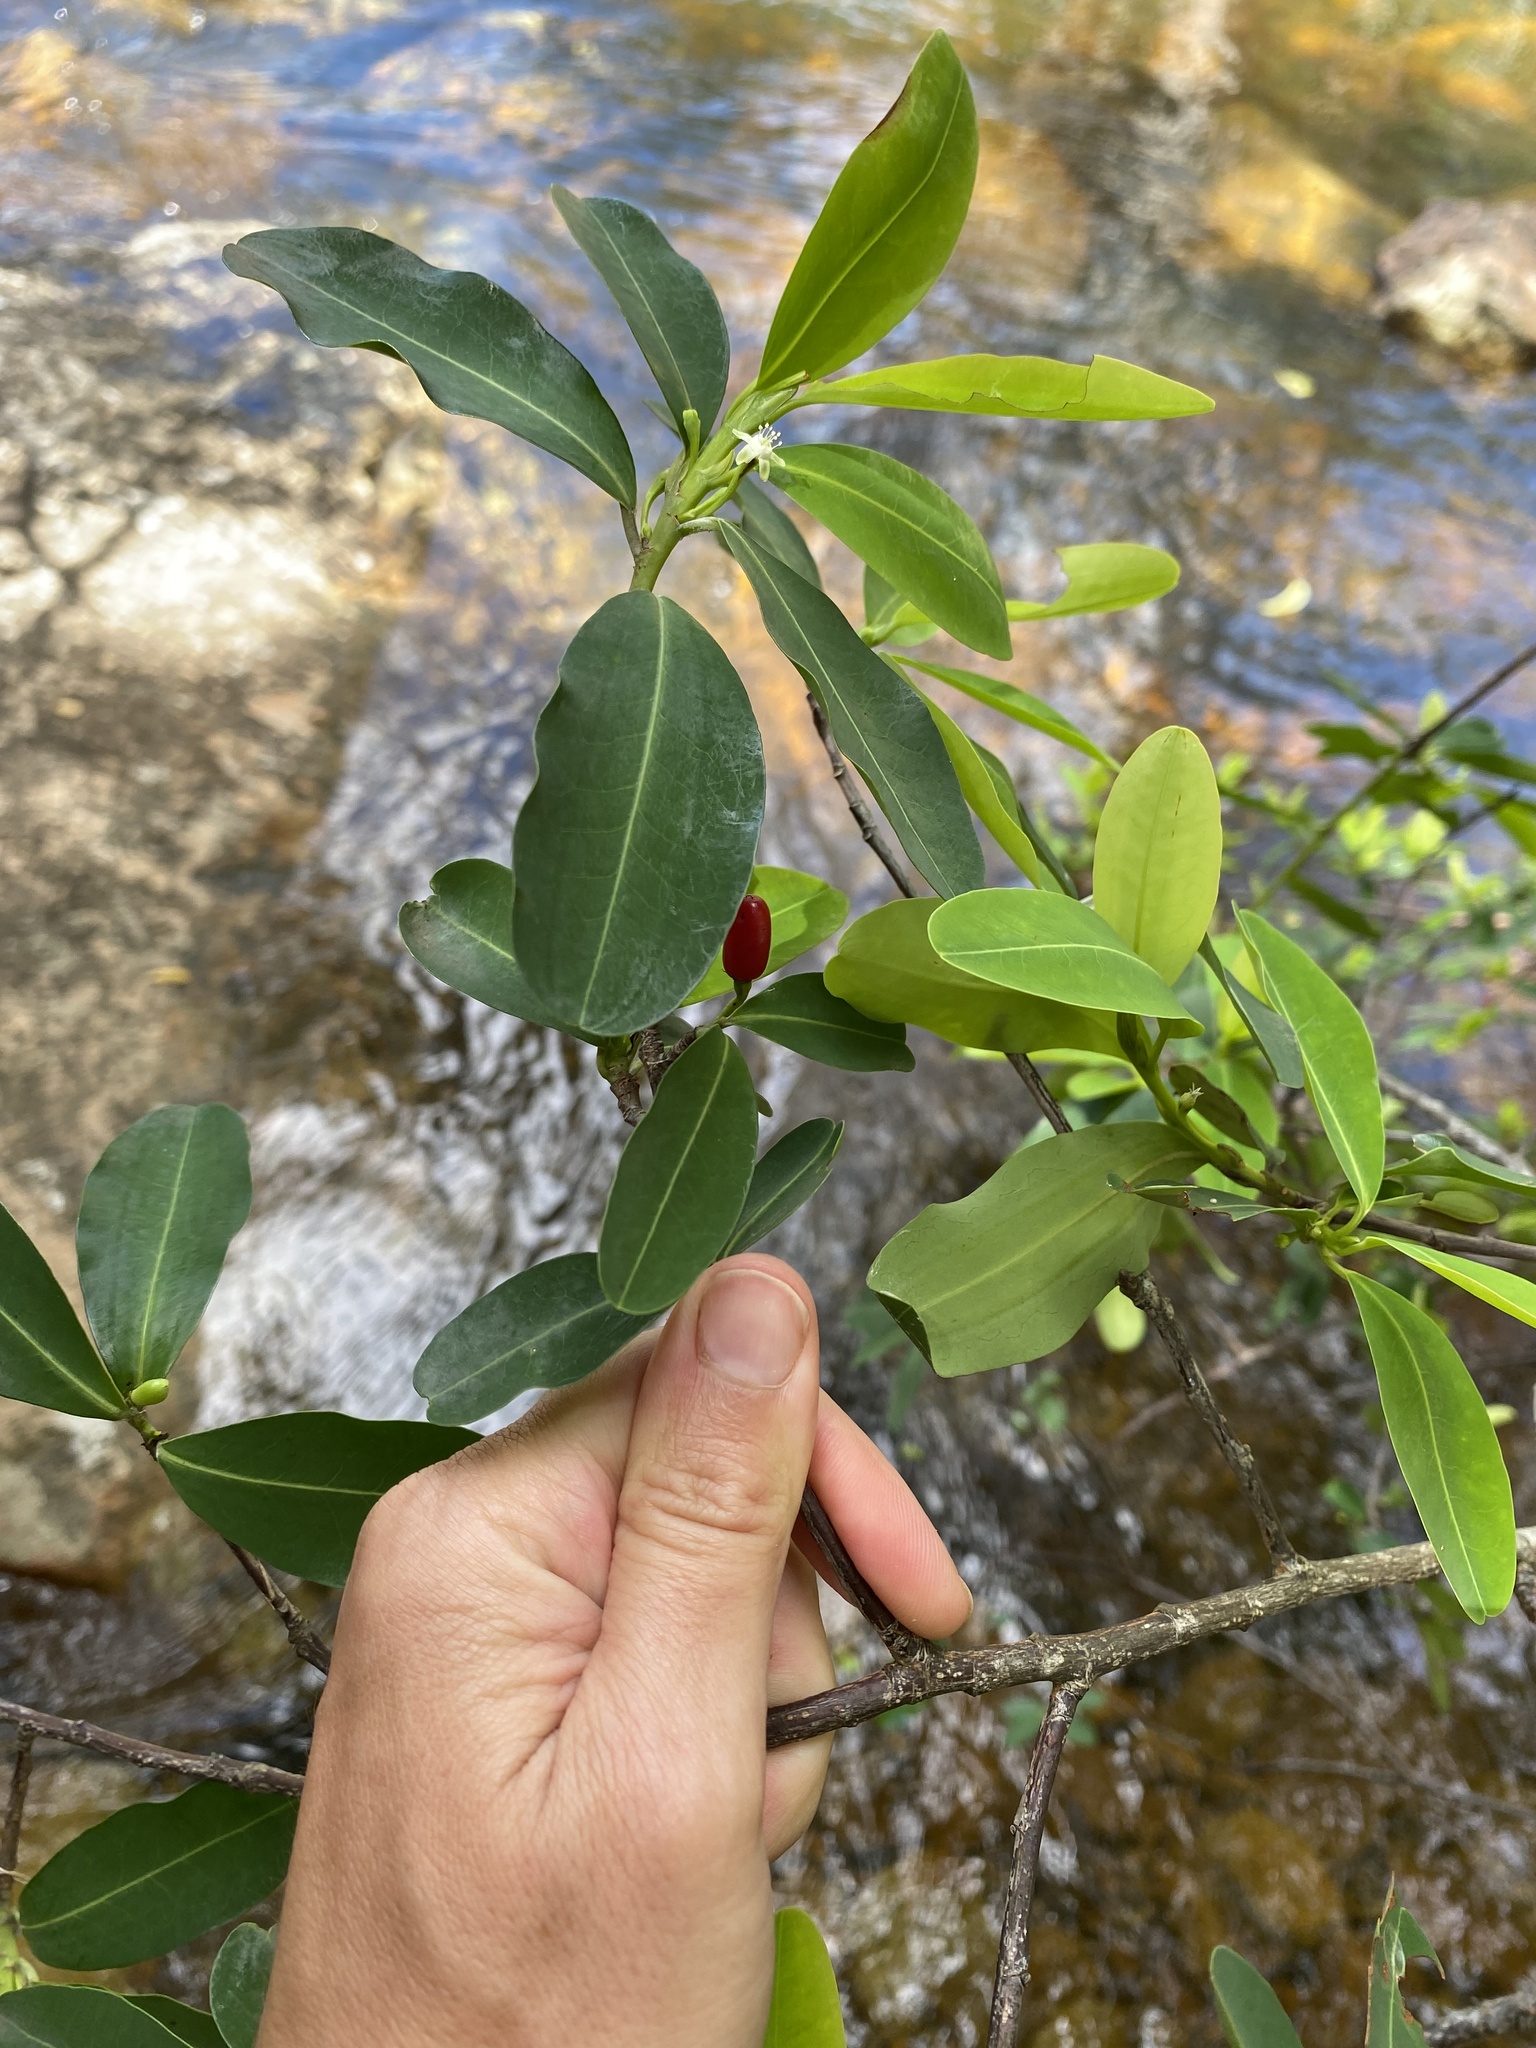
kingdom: Plantae
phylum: Tracheophyta
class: Magnoliopsida
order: Malpighiales
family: Erythroxylaceae
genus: Erythroxylum
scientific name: Erythroxylum pictum
